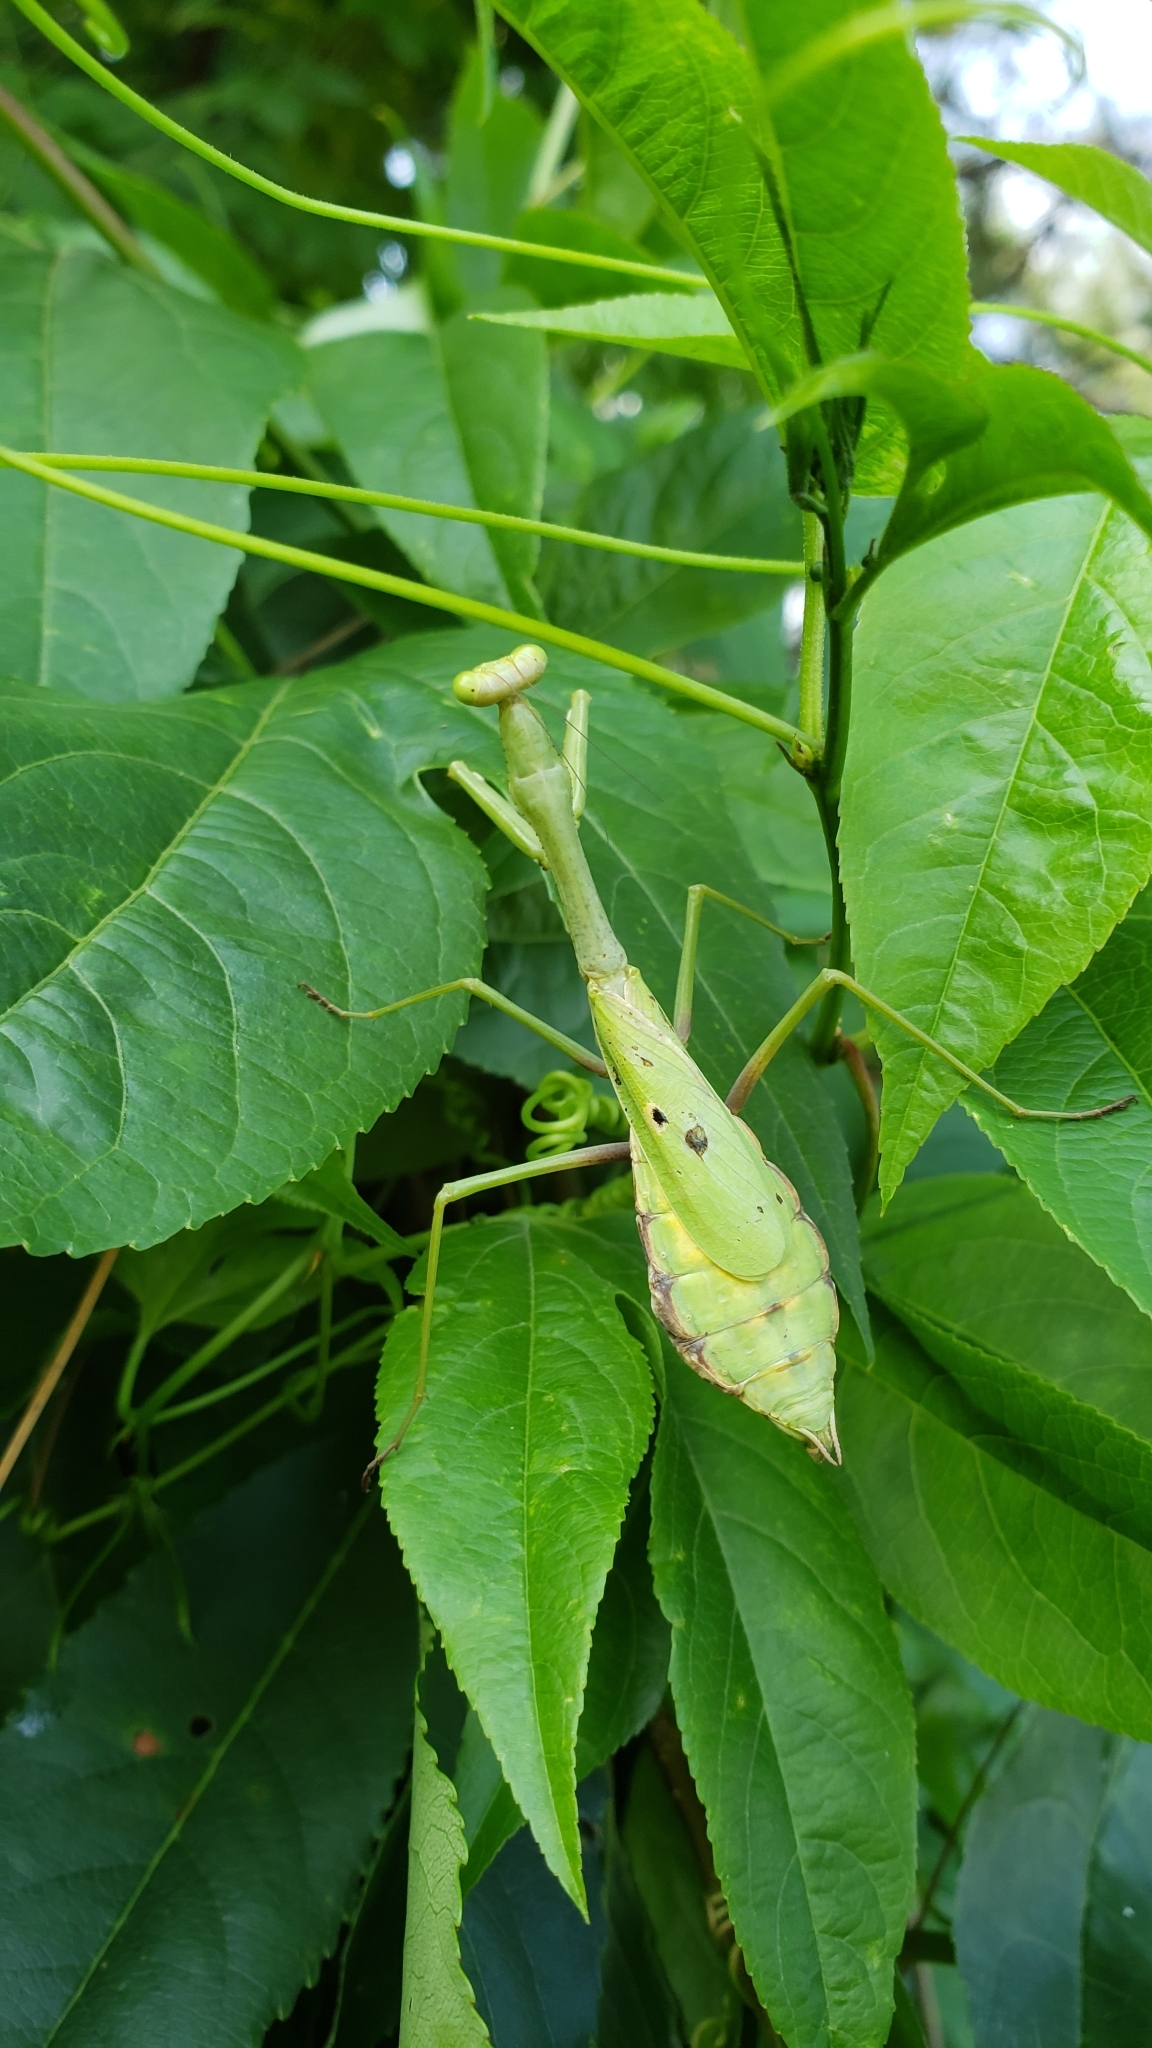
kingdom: Animalia
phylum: Arthropoda
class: Insecta
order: Mantodea
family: Mantidae
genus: Stagmomantis
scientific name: Stagmomantis carolina
